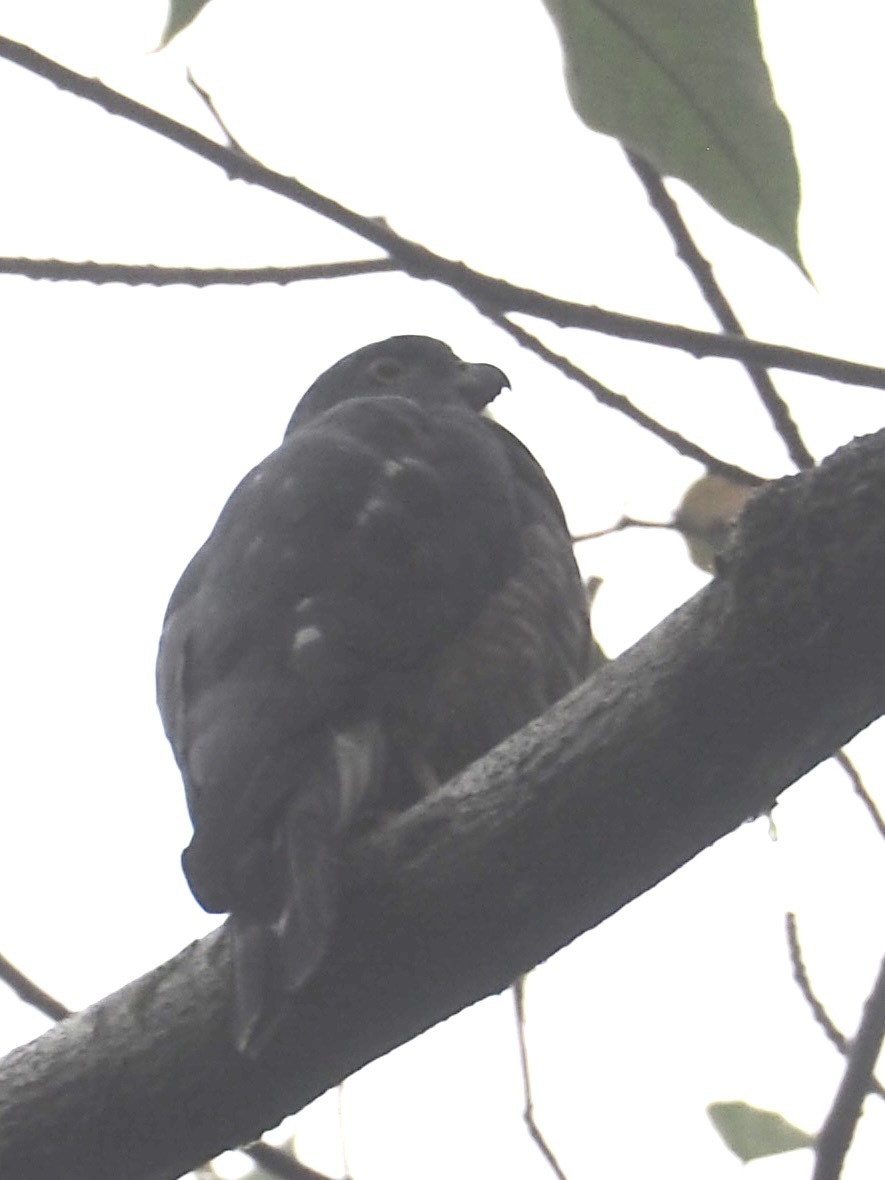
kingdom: Animalia
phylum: Chordata
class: Aves
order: Accipitriformes
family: Accipitridae
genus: Harpagus
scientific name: Harpagus bidentatus
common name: Double-toothed kite
